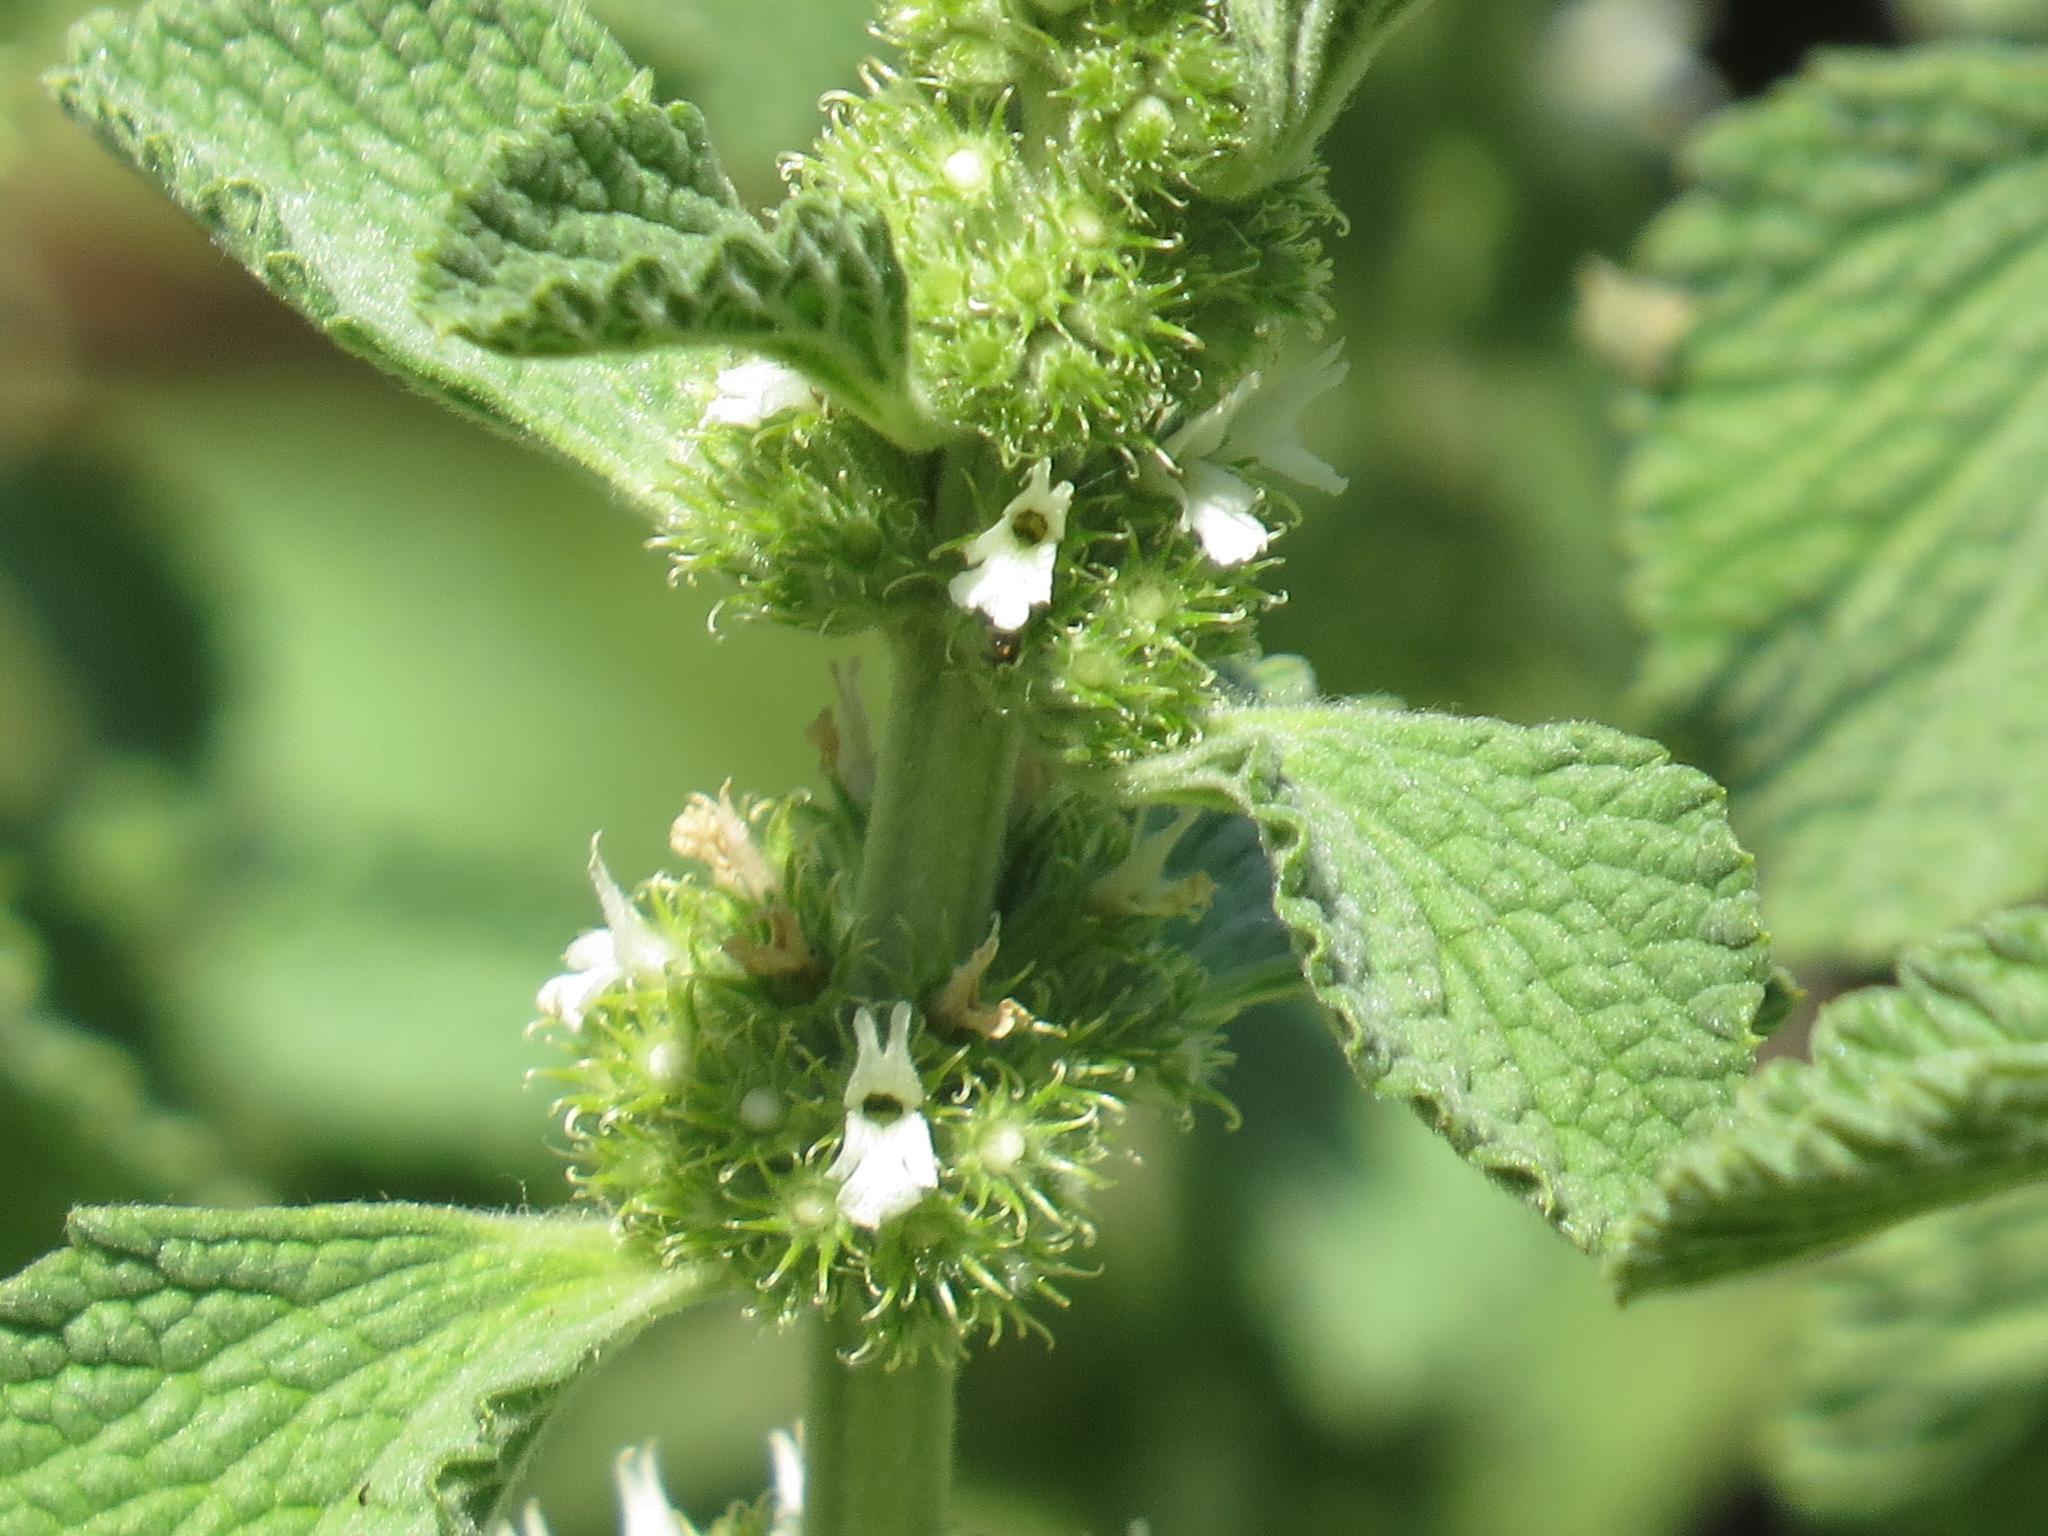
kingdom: Plantae
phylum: Tracheophyta
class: Magnoliopsida
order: Lamiales
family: Lamiaceae
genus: Marrubium
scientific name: Marrubium vulgare
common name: Horehound
